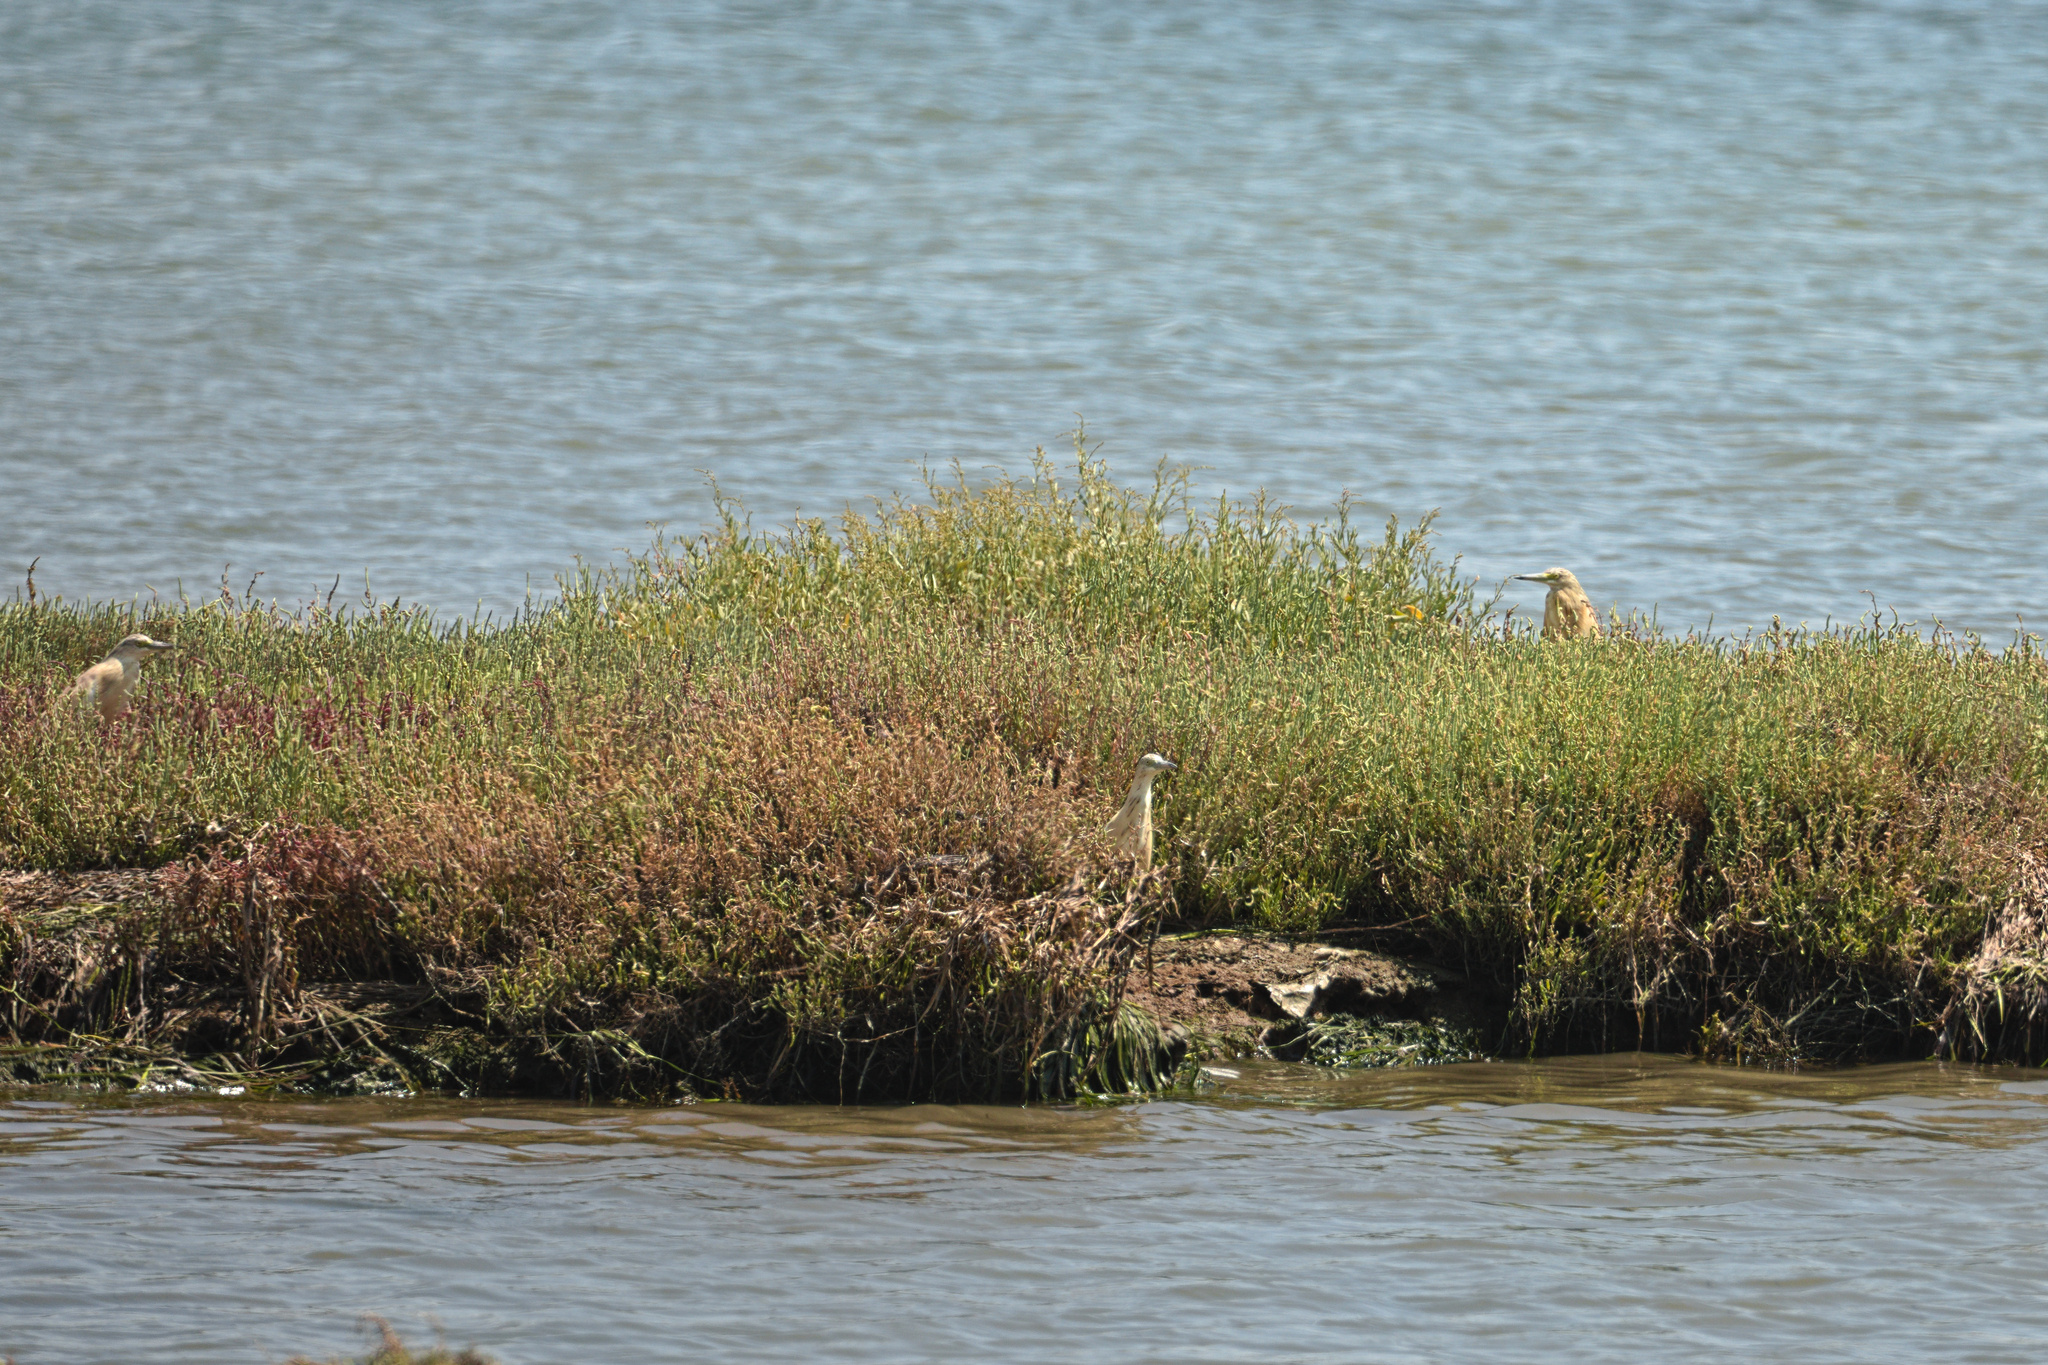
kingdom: Animalia
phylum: Chordata
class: Aves
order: Pelecaniformes
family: Ardeidae
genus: Ardeola
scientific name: Ardeola ralloides
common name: Squacco heron
